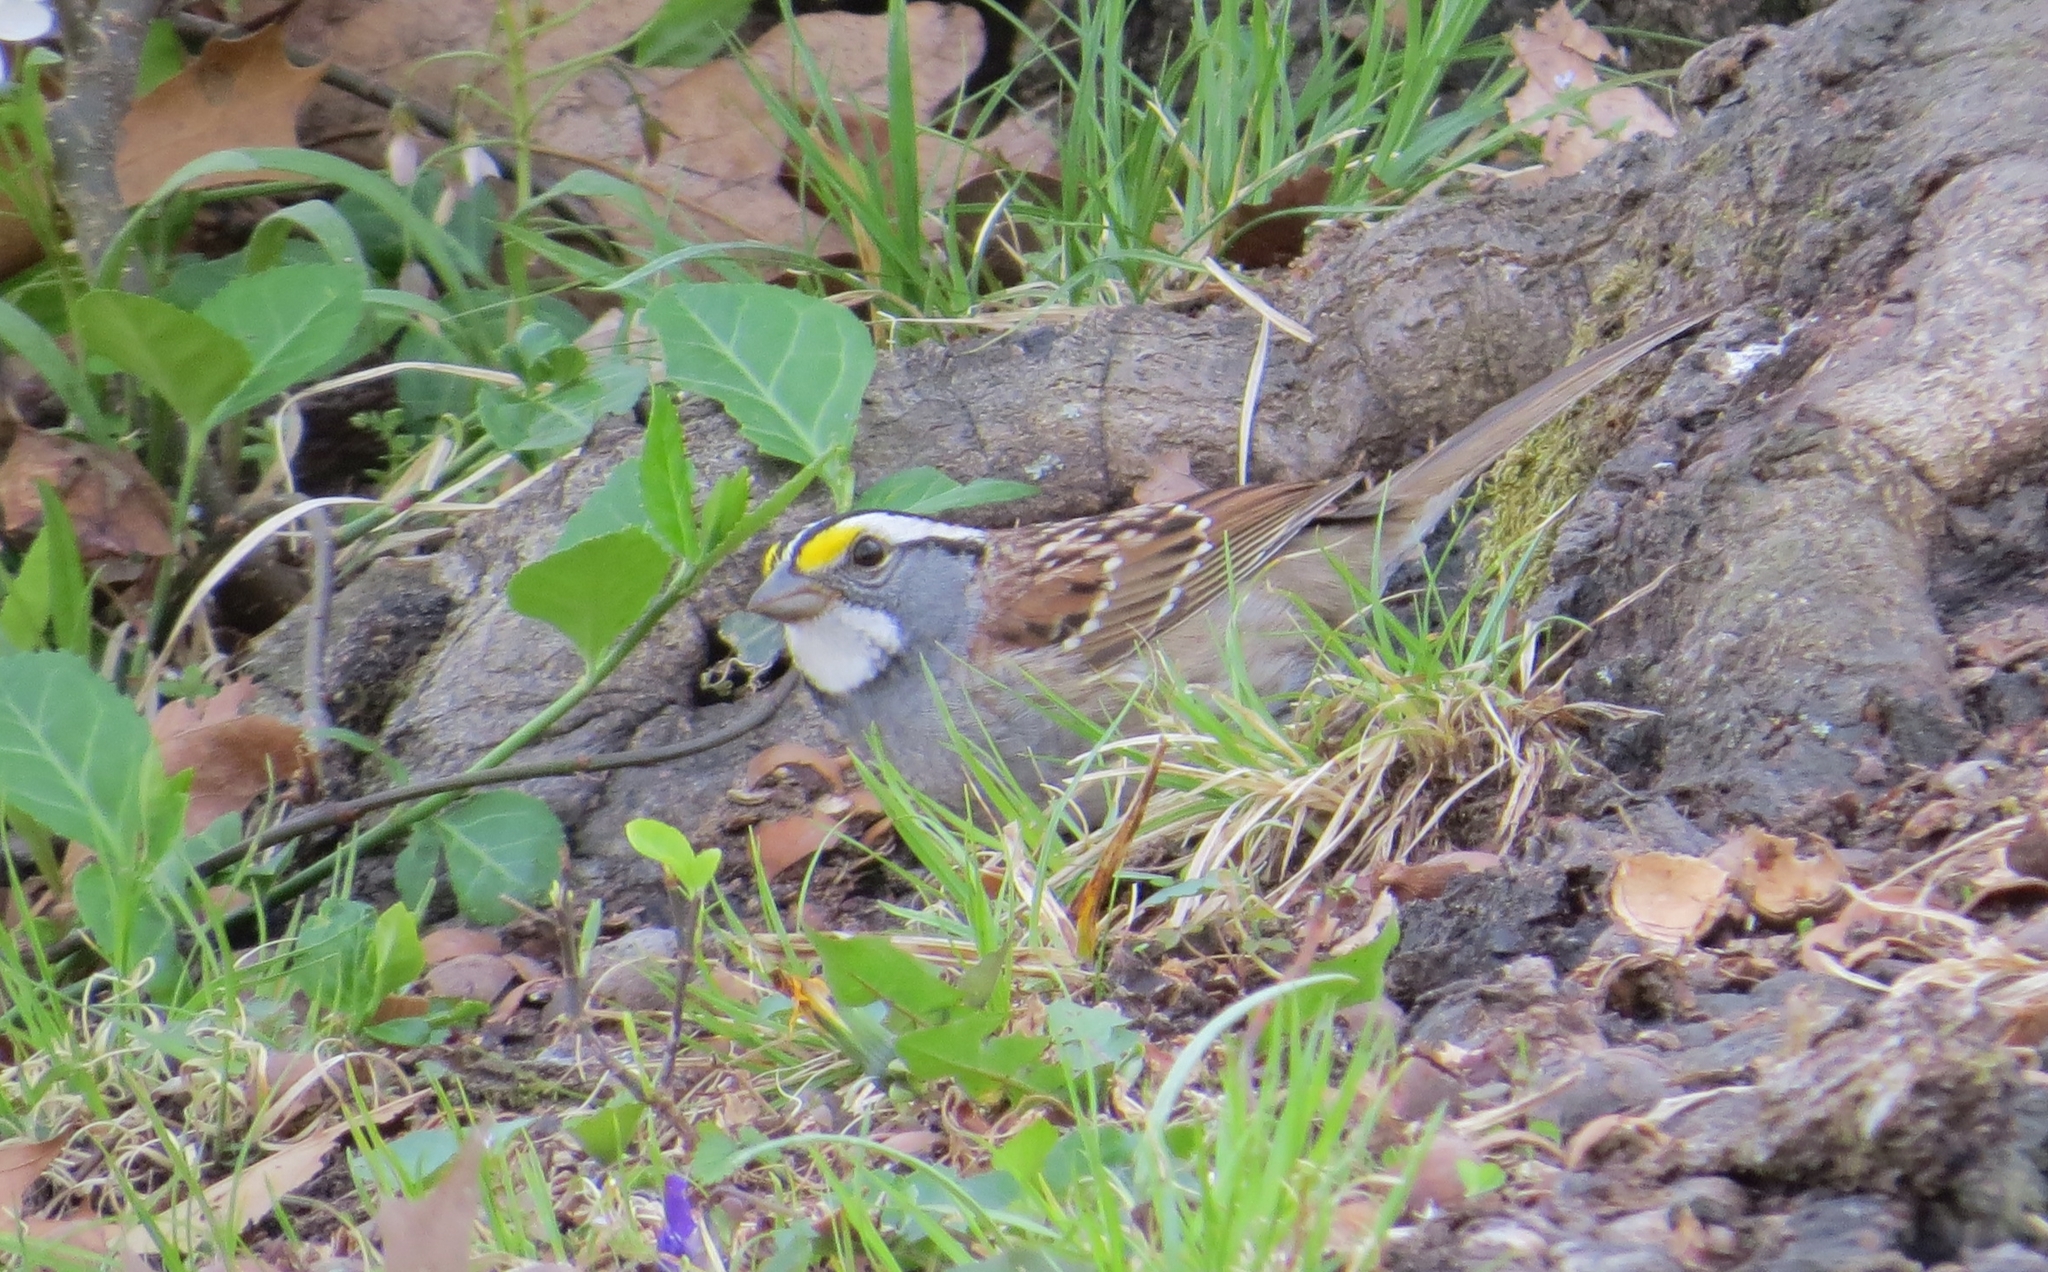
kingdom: Animalia
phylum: Chordata
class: Aves
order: Passeriformes
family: Passerellidae
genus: Zonotrichia
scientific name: Zonotrichia albicollis
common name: White-throated sparrow
